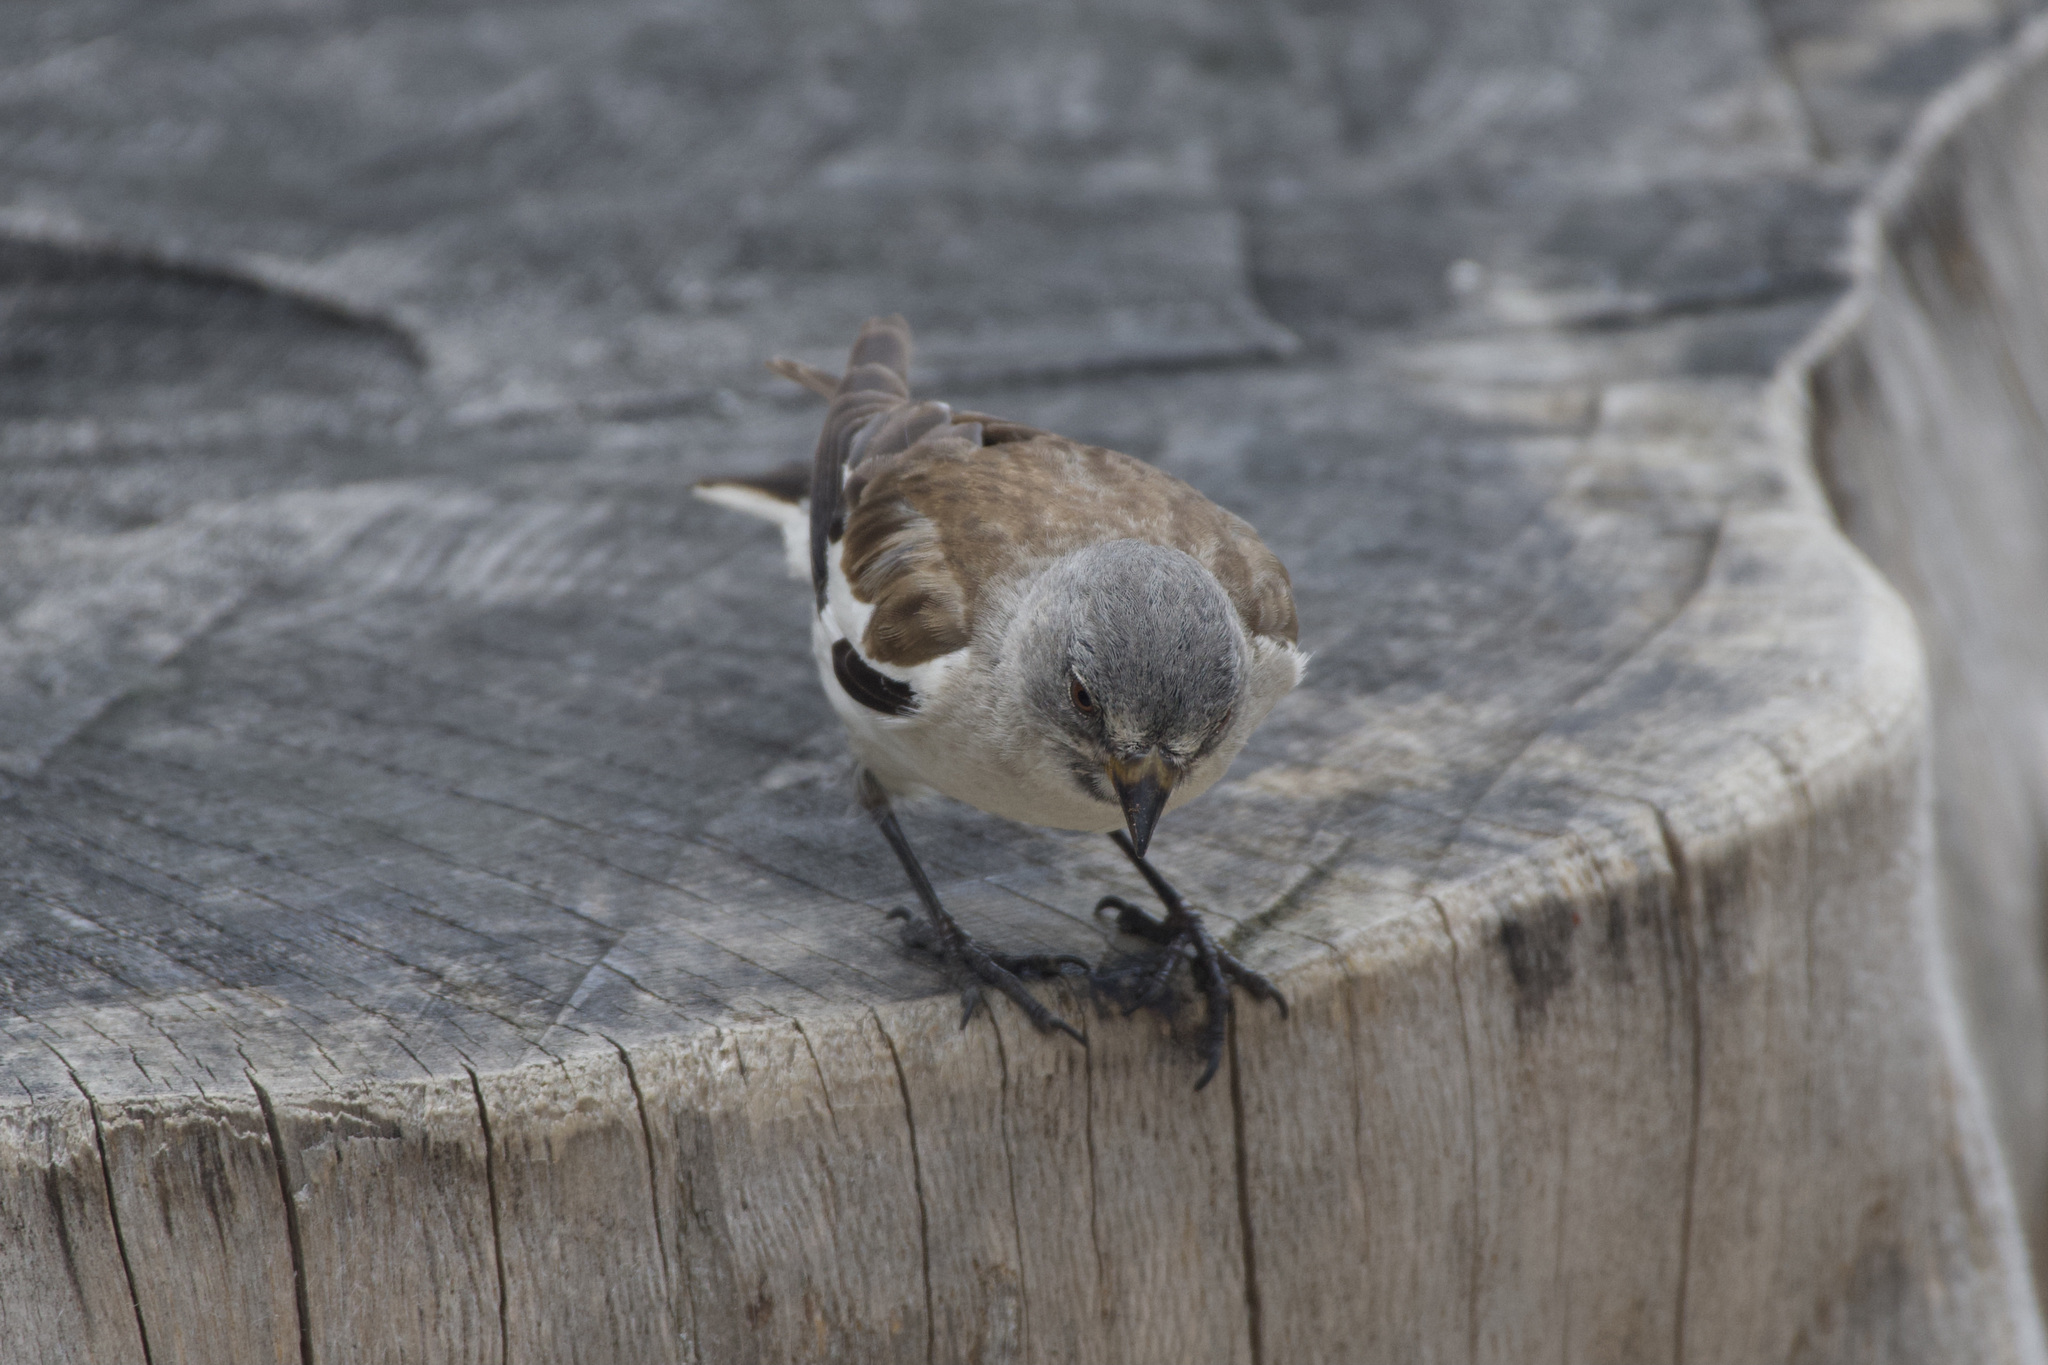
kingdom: Animalia
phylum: Chordata
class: Aves
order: Passeriformes
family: Passeridae
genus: Montifringilla
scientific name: Montifringilla nivalis
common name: White-winged snowfinch
